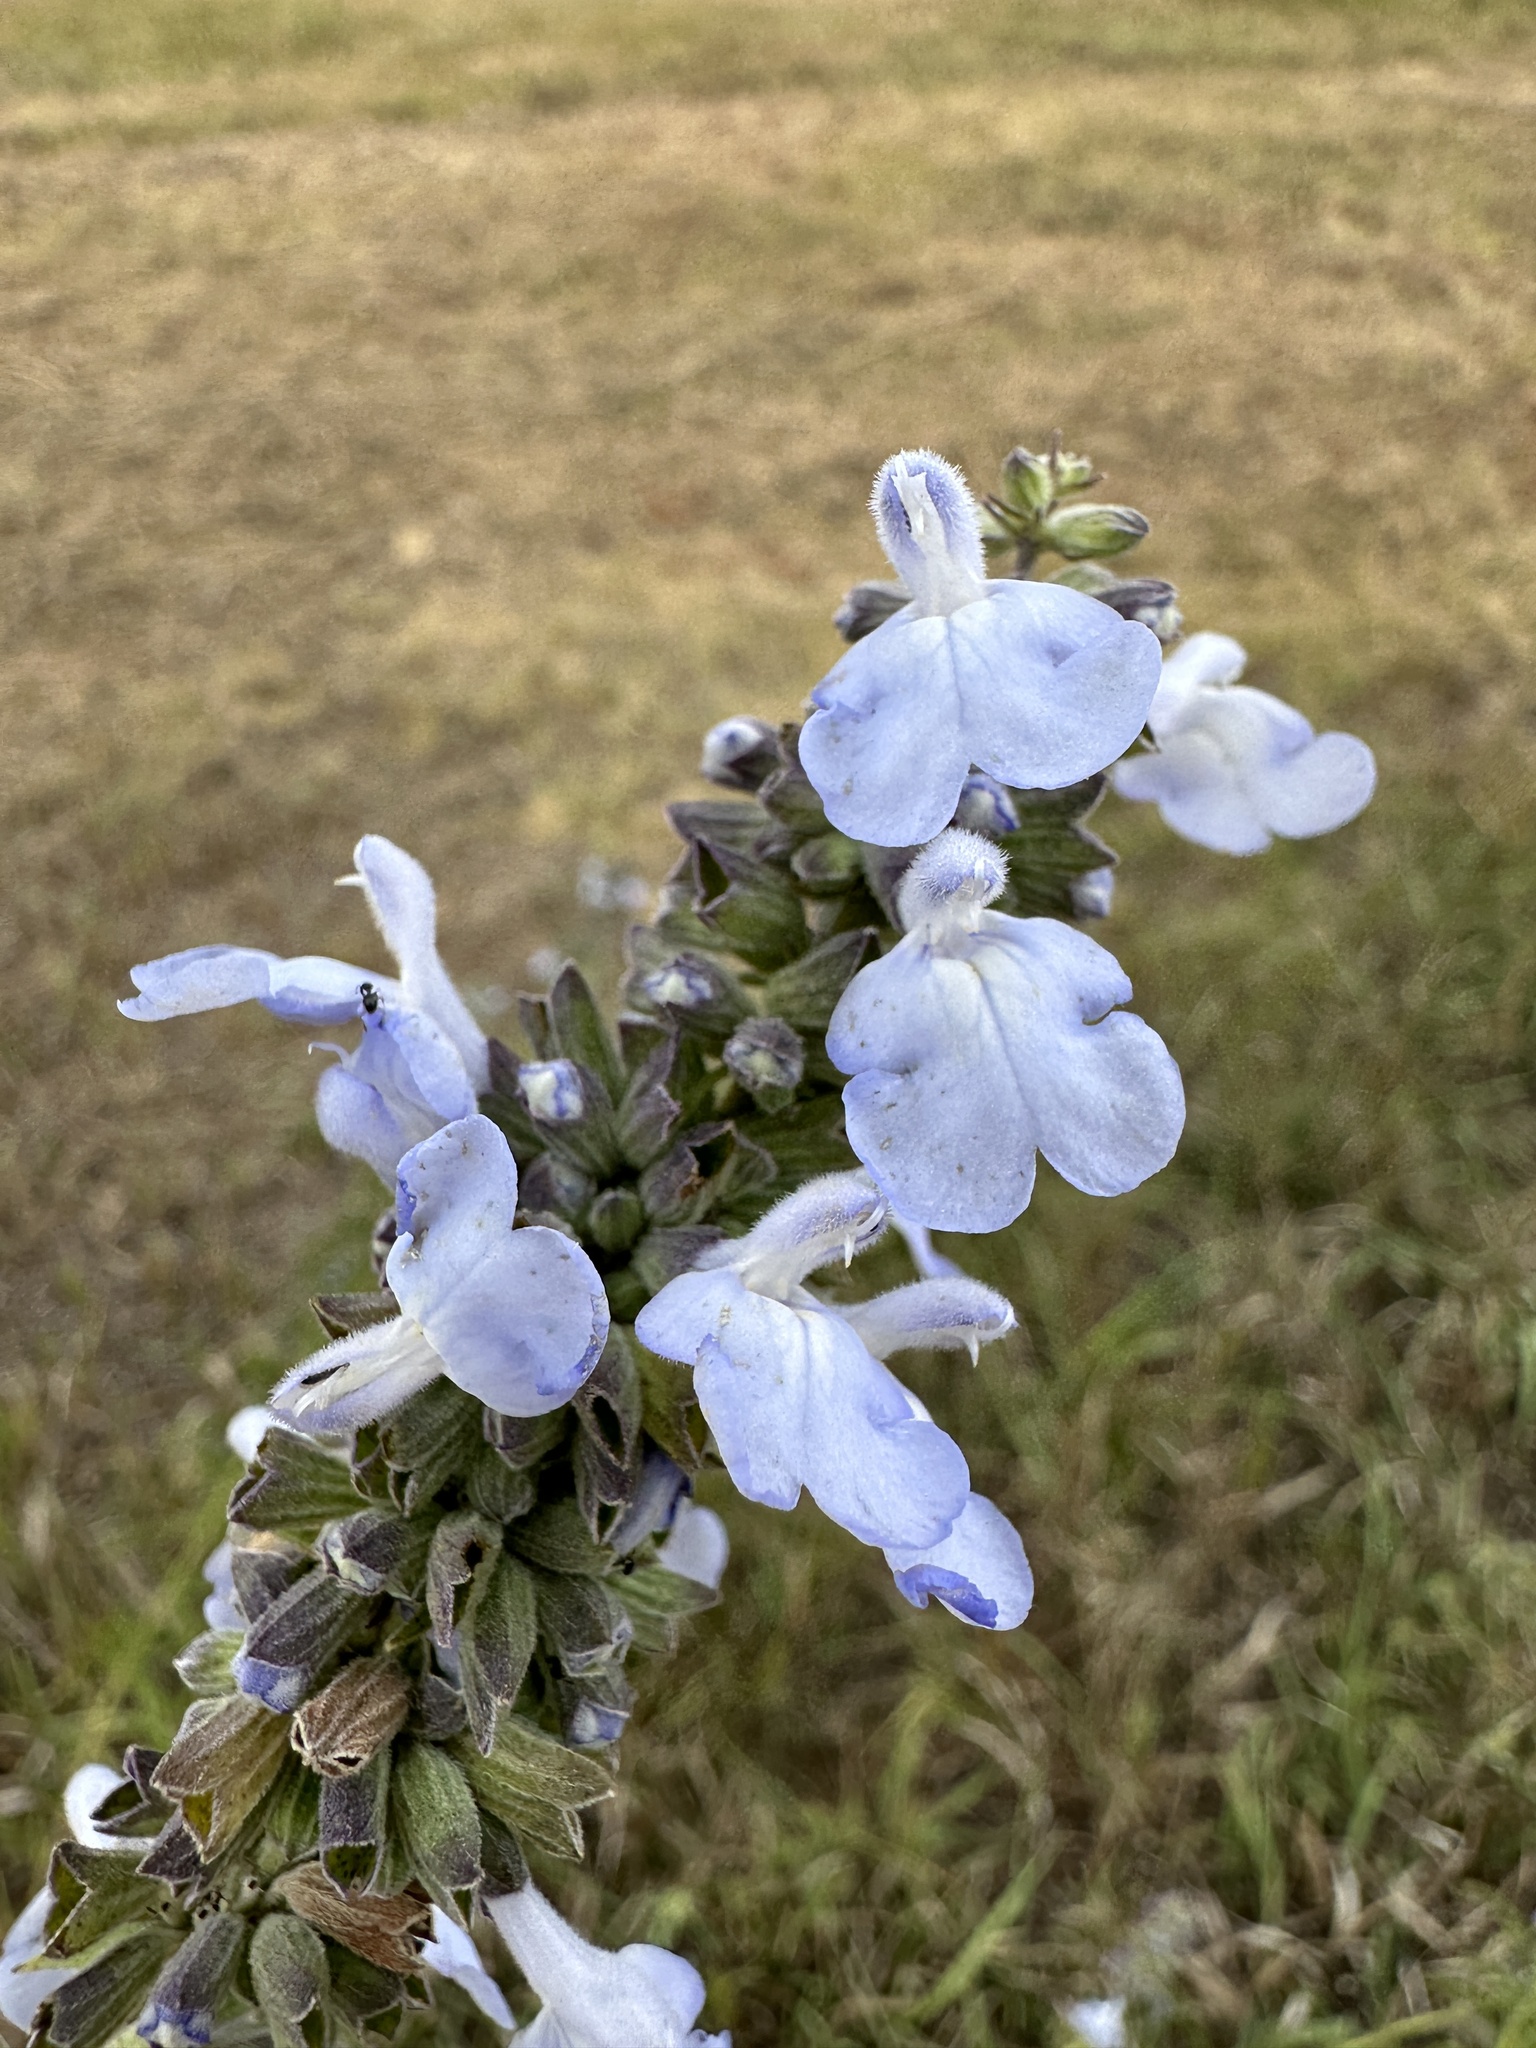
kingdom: Plantae
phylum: Tracheophyta
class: Magnoliopsida
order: Lamiales
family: Lamiaceae
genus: Salvia
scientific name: Salvia azurea
